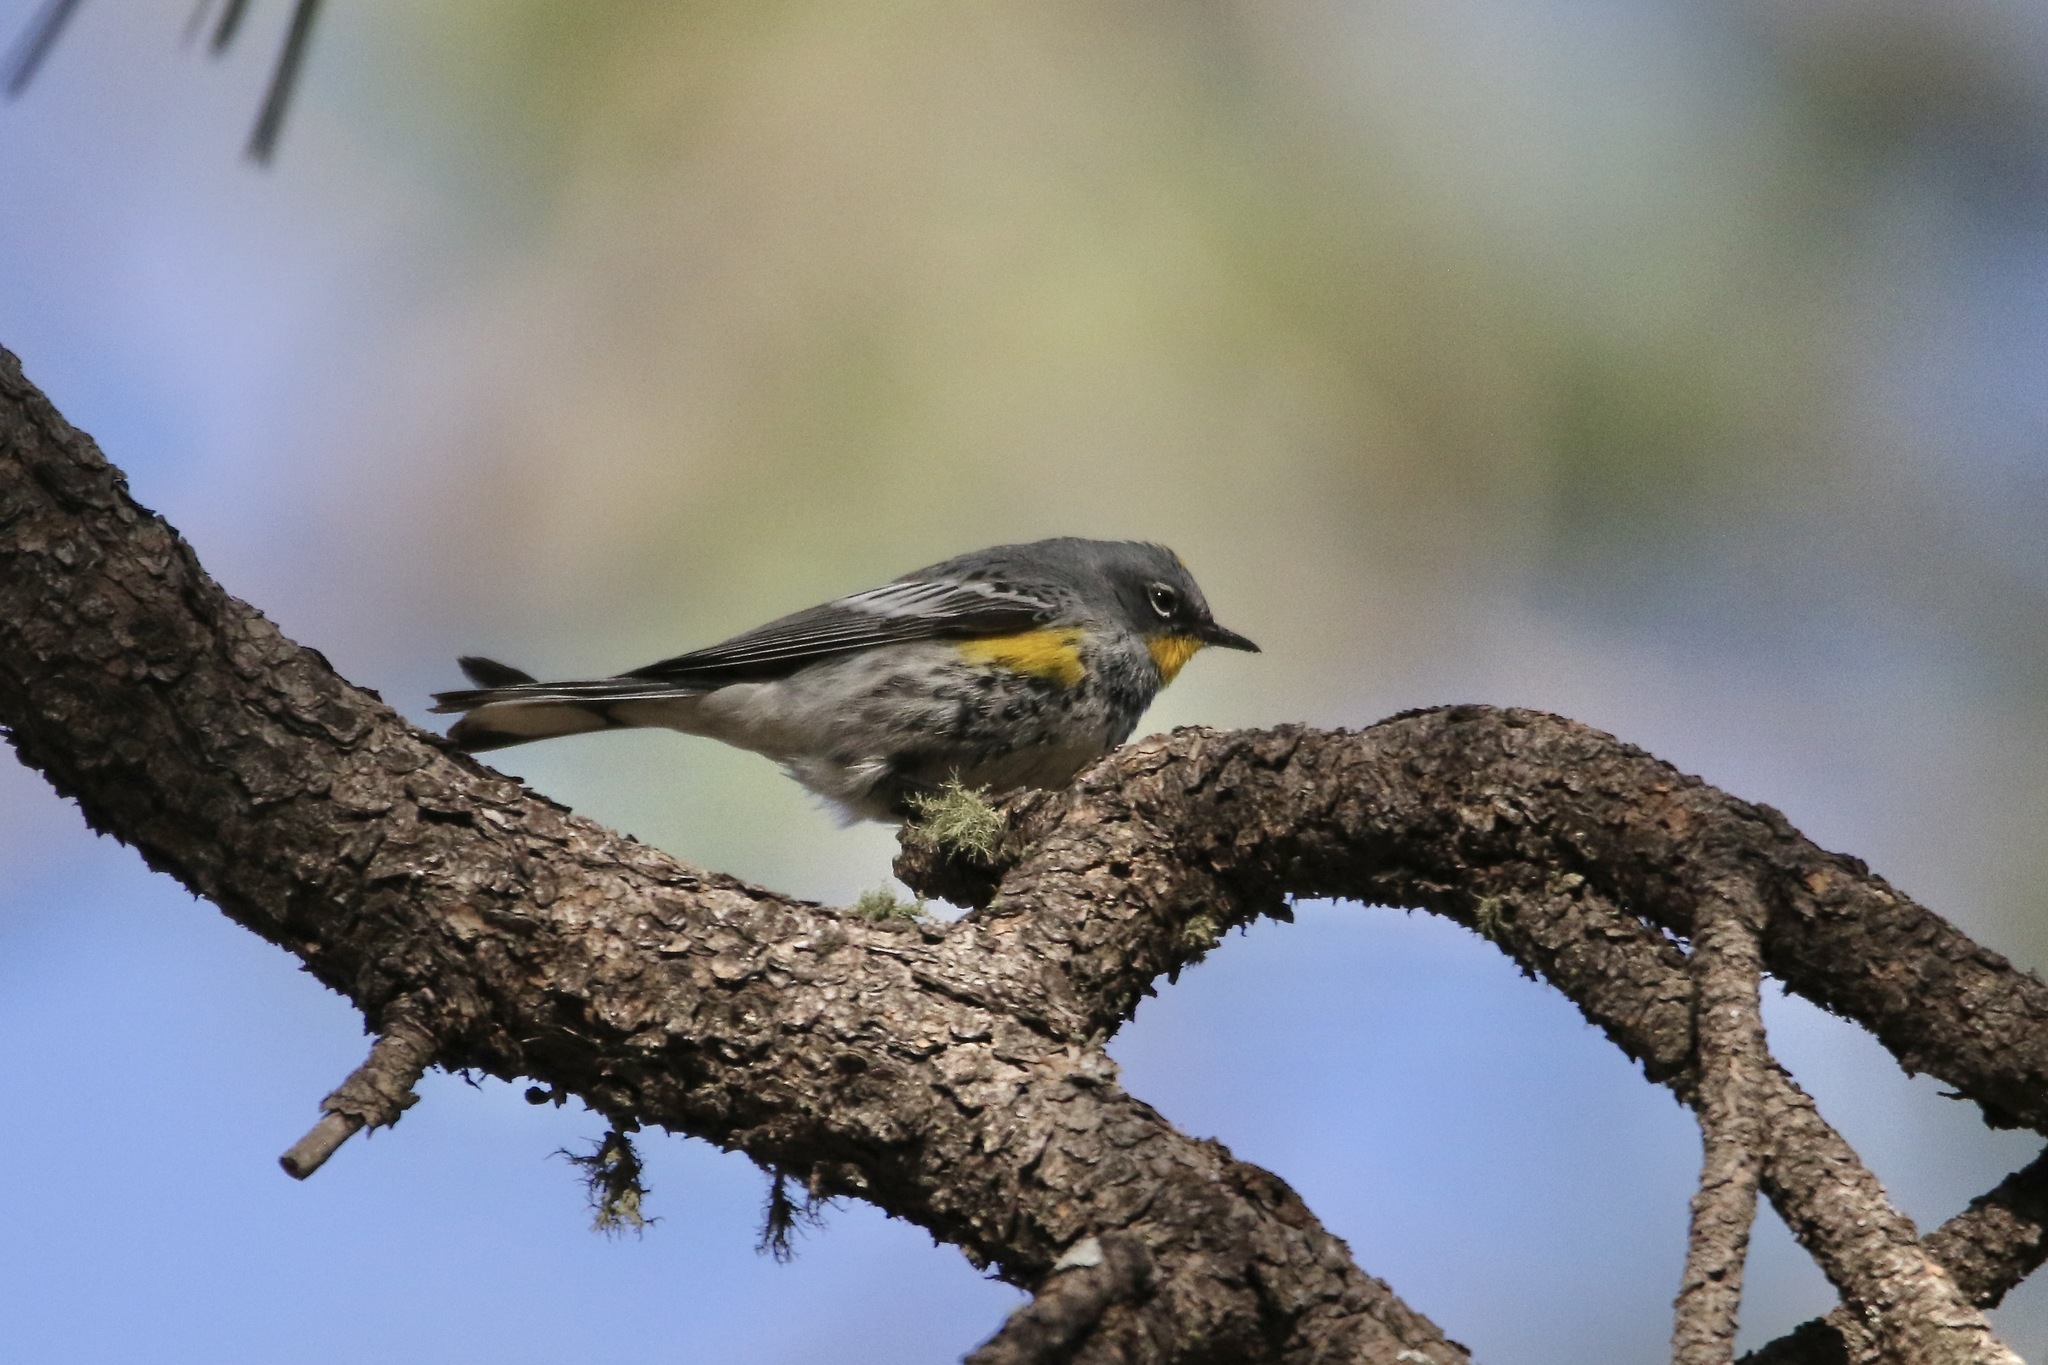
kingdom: Animalia
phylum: Chordata
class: Aves
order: Passeriformes
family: Parulidae
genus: Setophaga
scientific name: Setophaga auduboni
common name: Audubon's warbler
